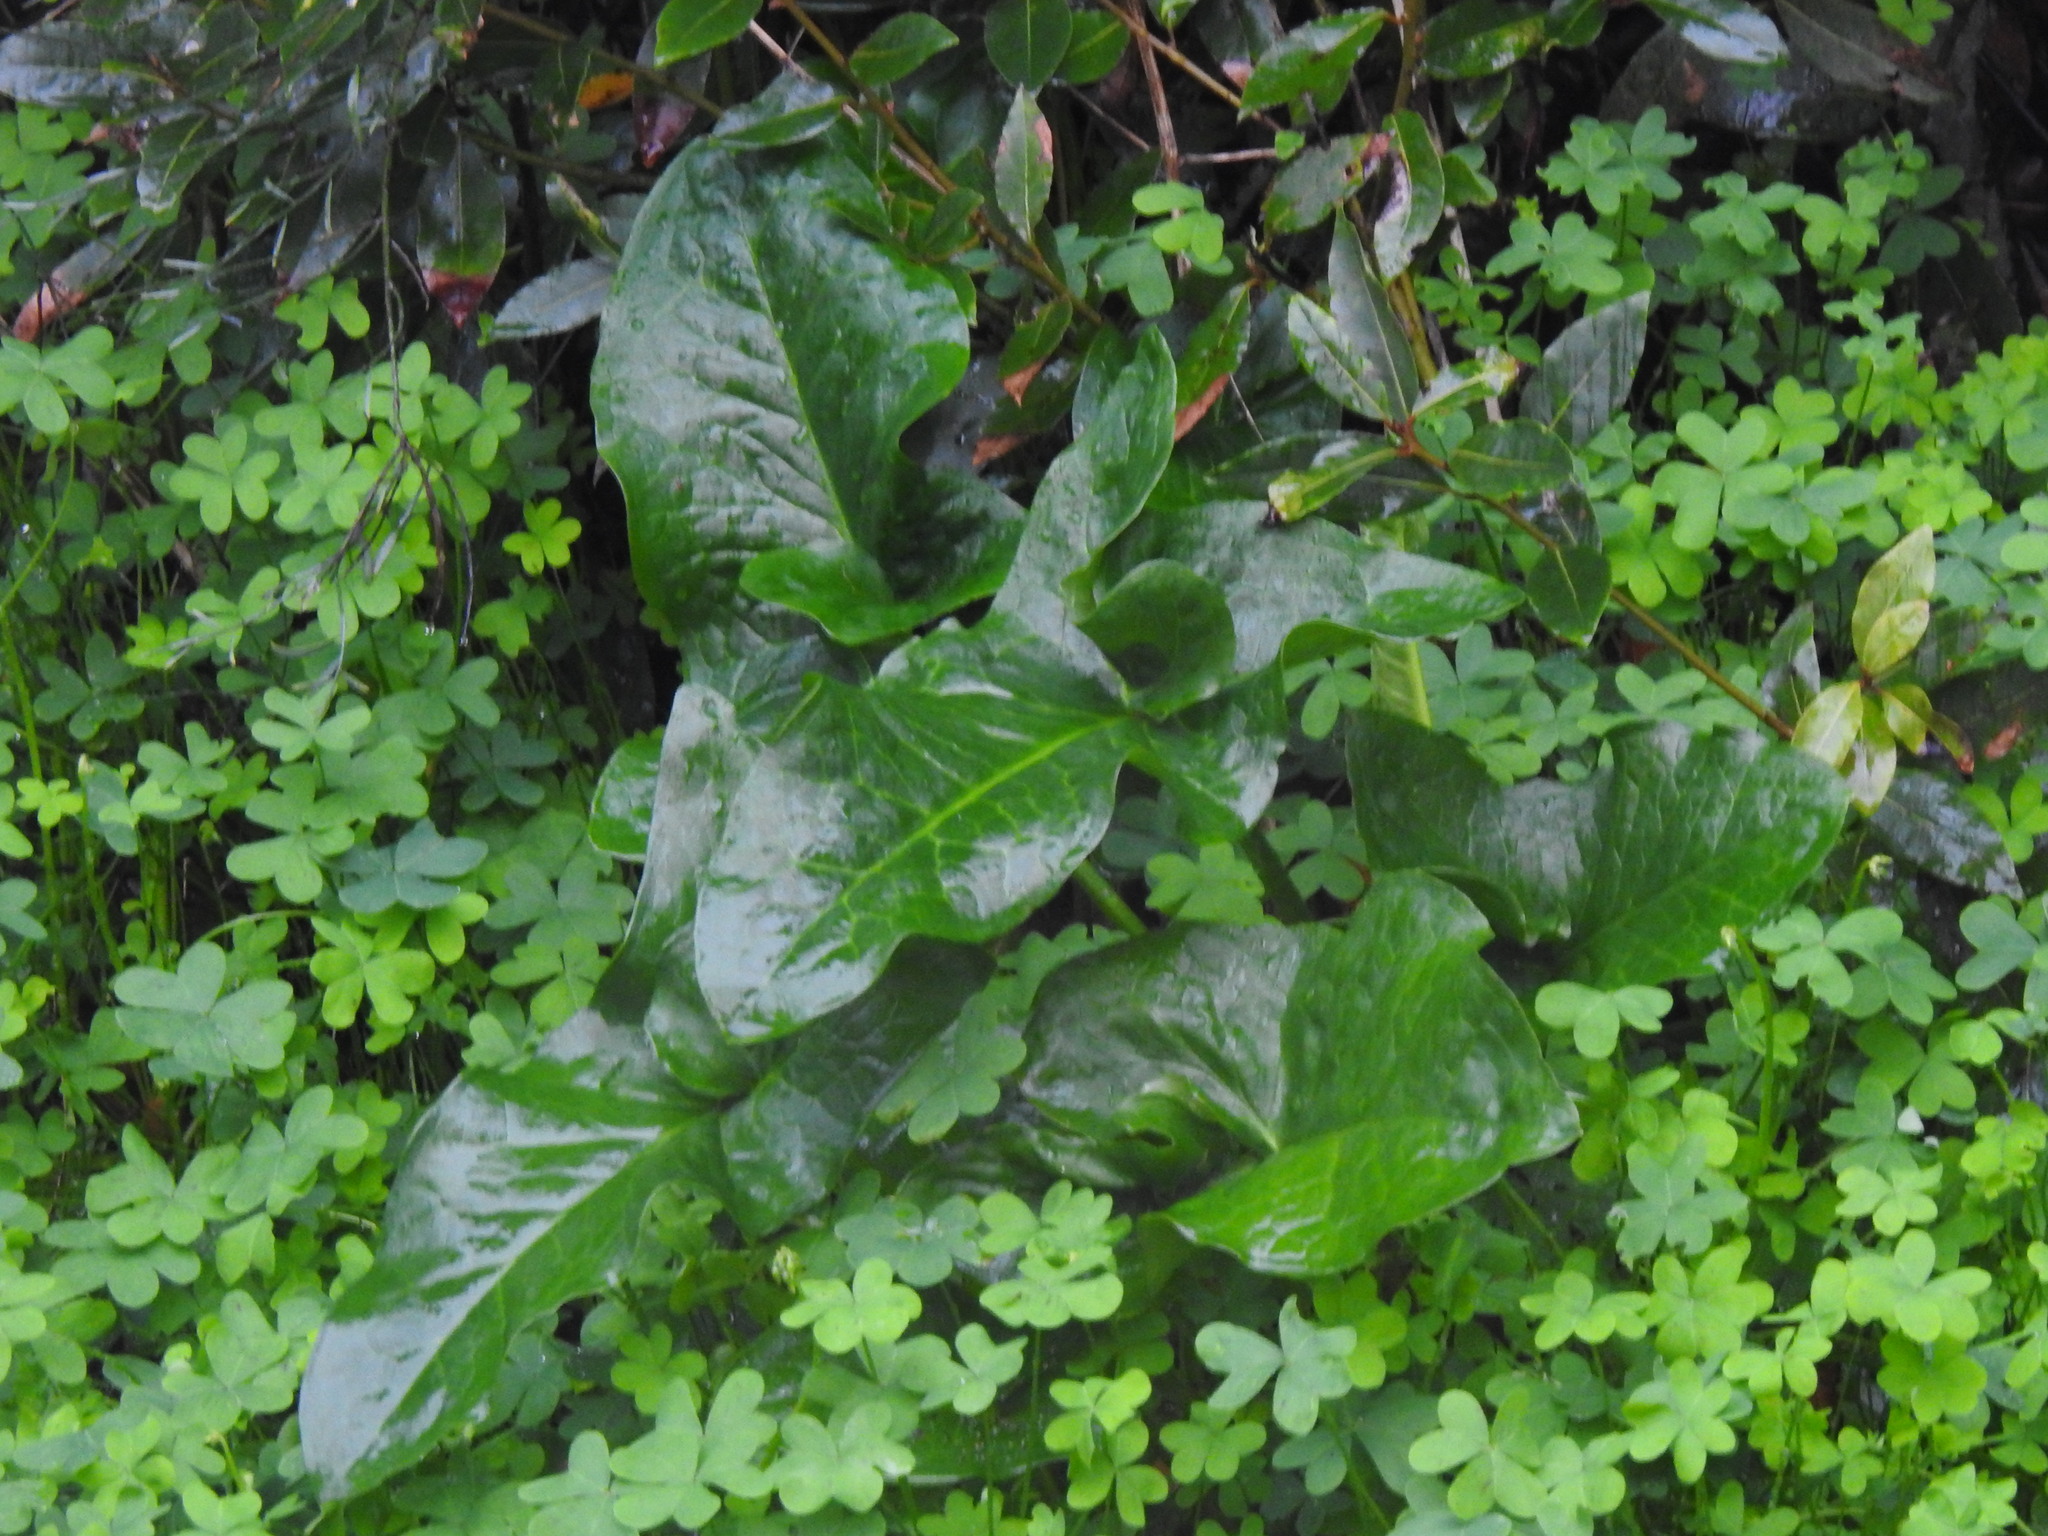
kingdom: Plantae
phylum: Tracheophyta
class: Liliopsida
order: Alismatales
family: Araceae
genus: Arum
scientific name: Arum italicum
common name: Italian lords-and-ladies
